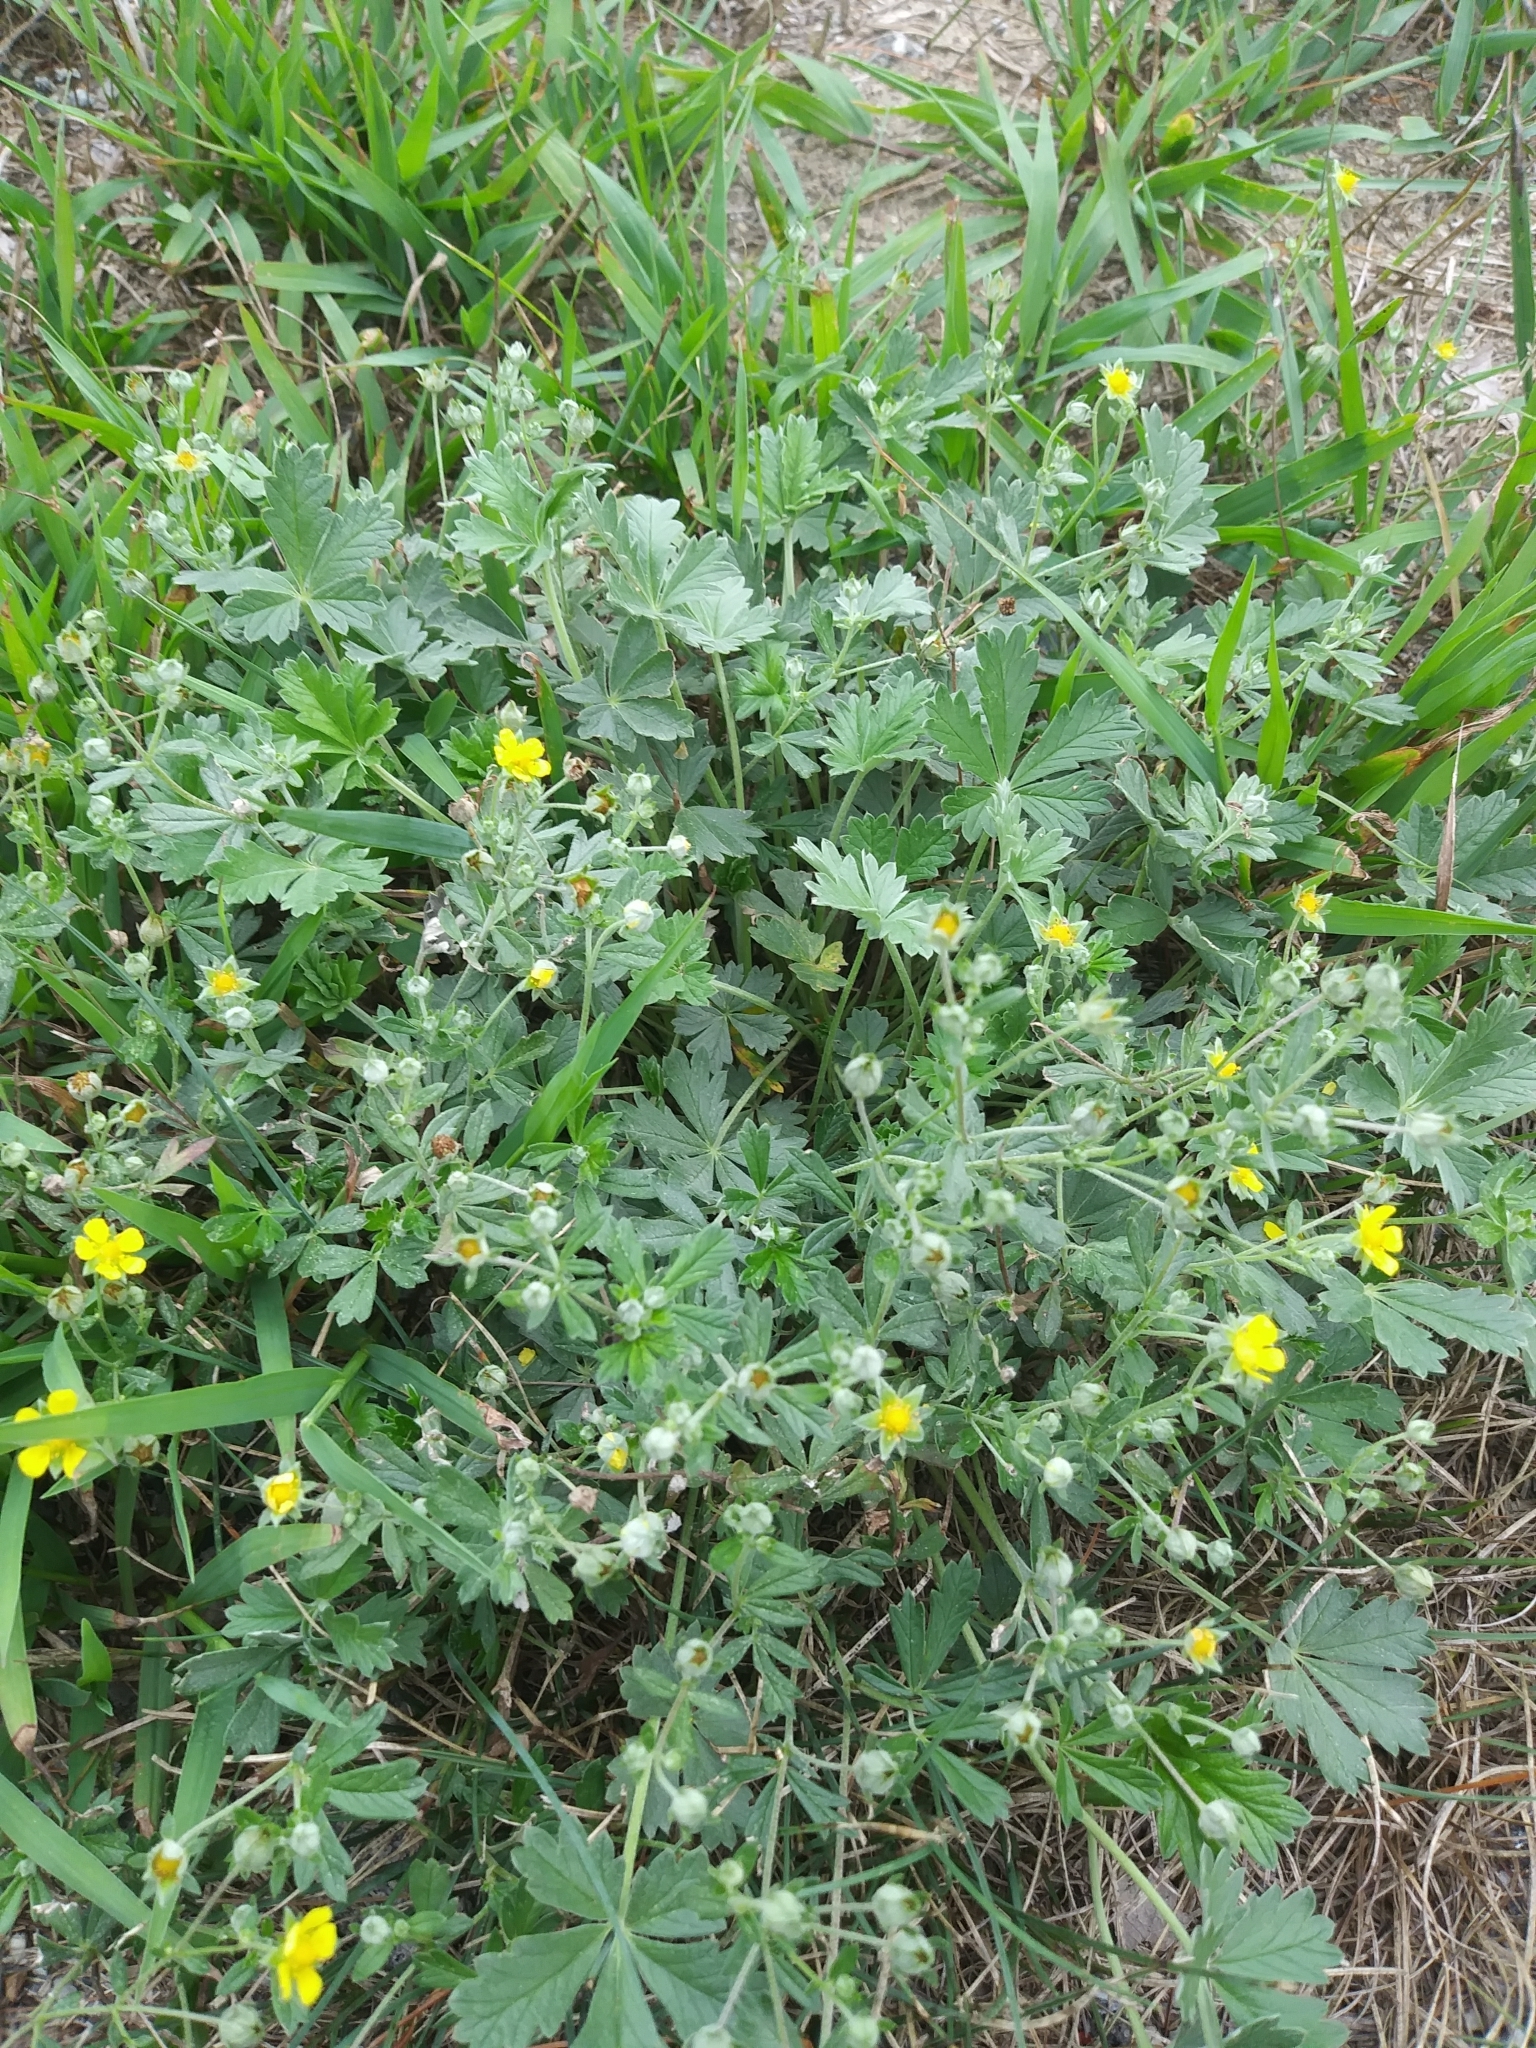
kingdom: Plantae
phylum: Tracheophyta
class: Magnoliopsida
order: Rosales
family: Rosaceae
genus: Potentilla
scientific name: Potentilla argentea
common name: Hoary cinquefoil
